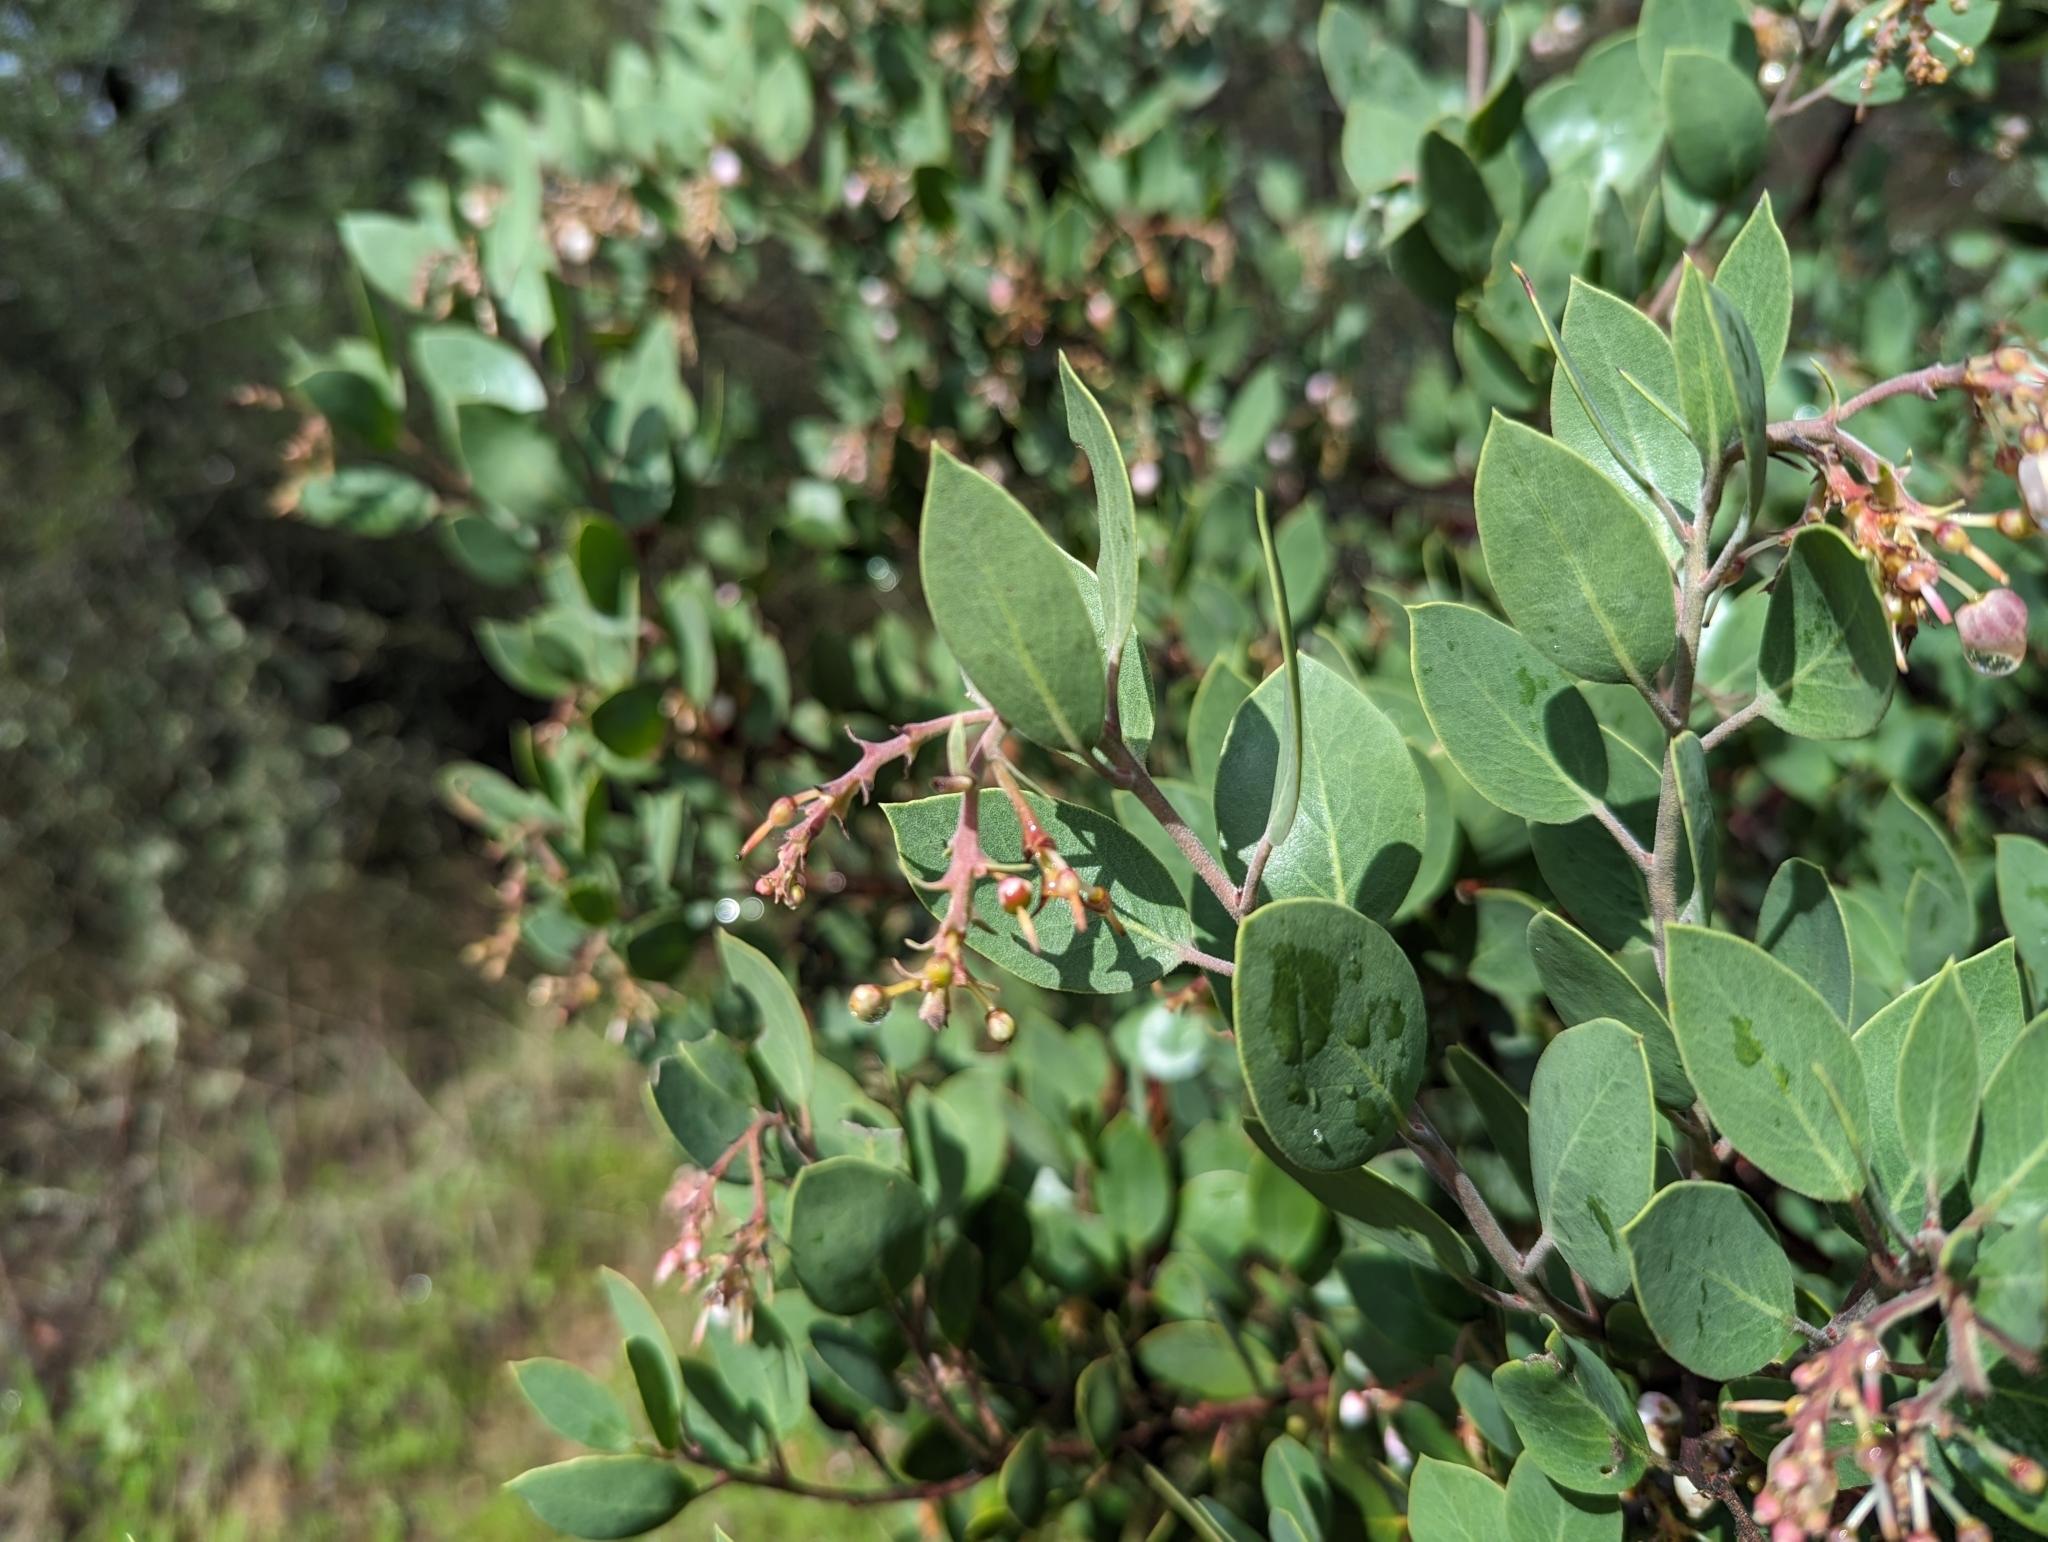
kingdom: Plantae
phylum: Tracheophyta
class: Magnoliopsida
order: Ericales
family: Ericaceae
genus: Arctostaphylos
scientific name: Arctostaphylos manzanita
